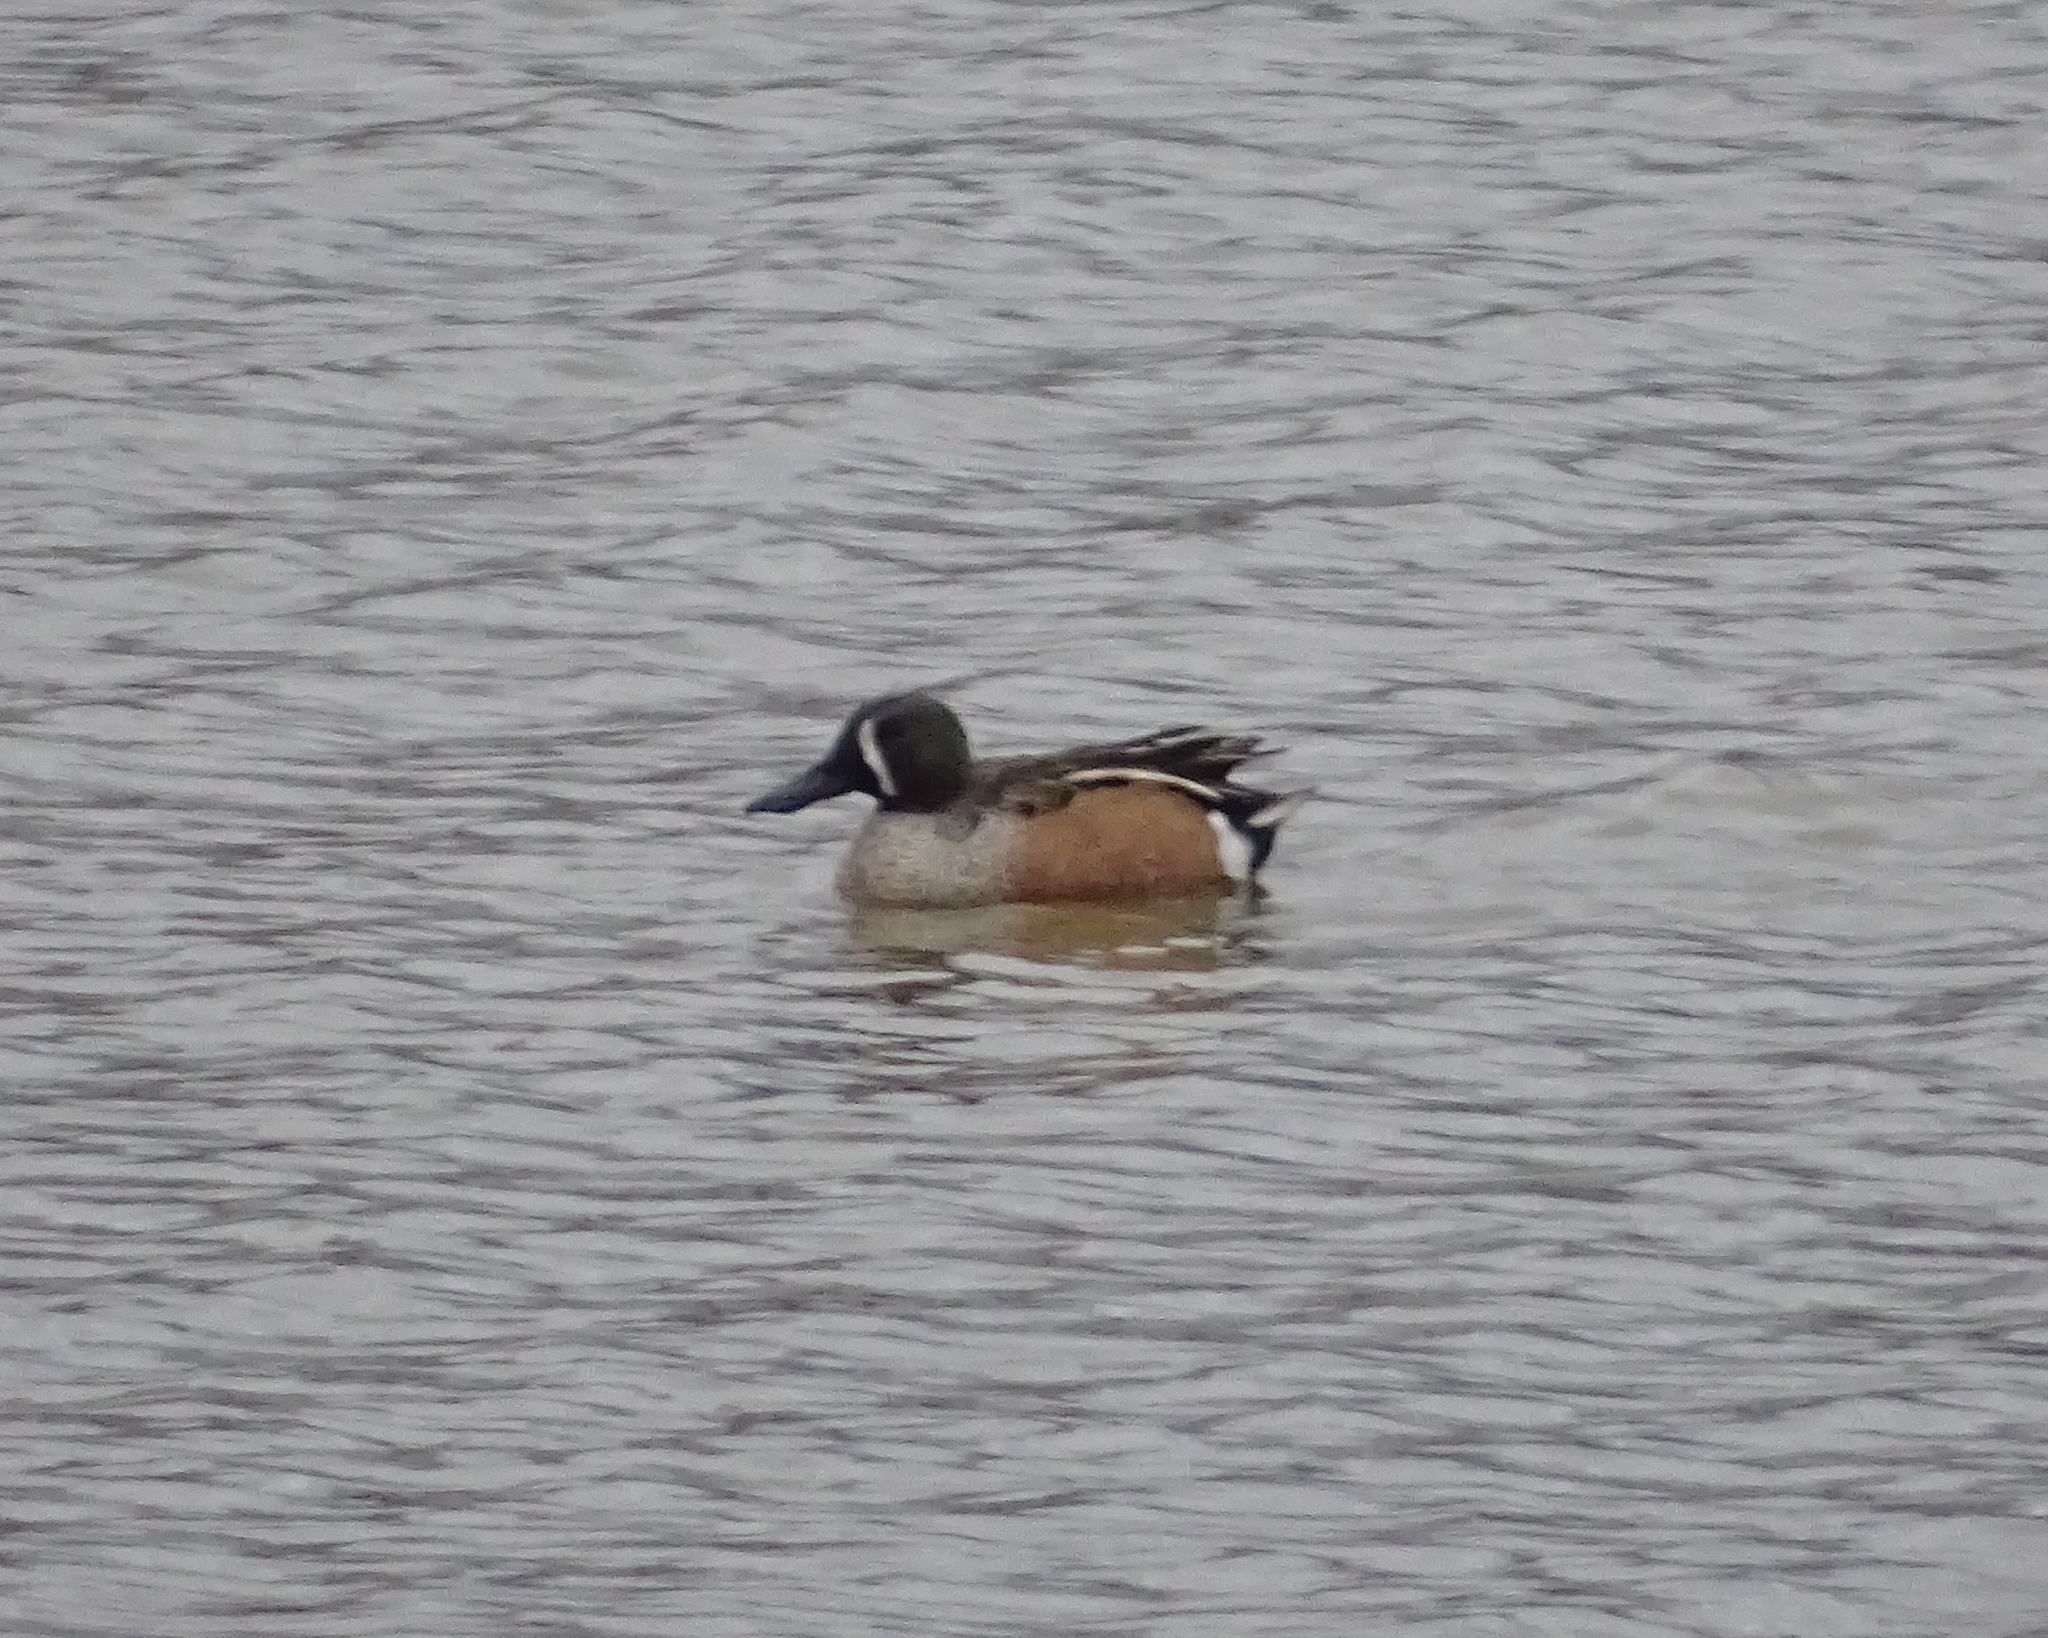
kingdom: Animalia
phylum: Chordata
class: Aves
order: Anseriformes
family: Anatidae
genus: Spatula
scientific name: Spatula
